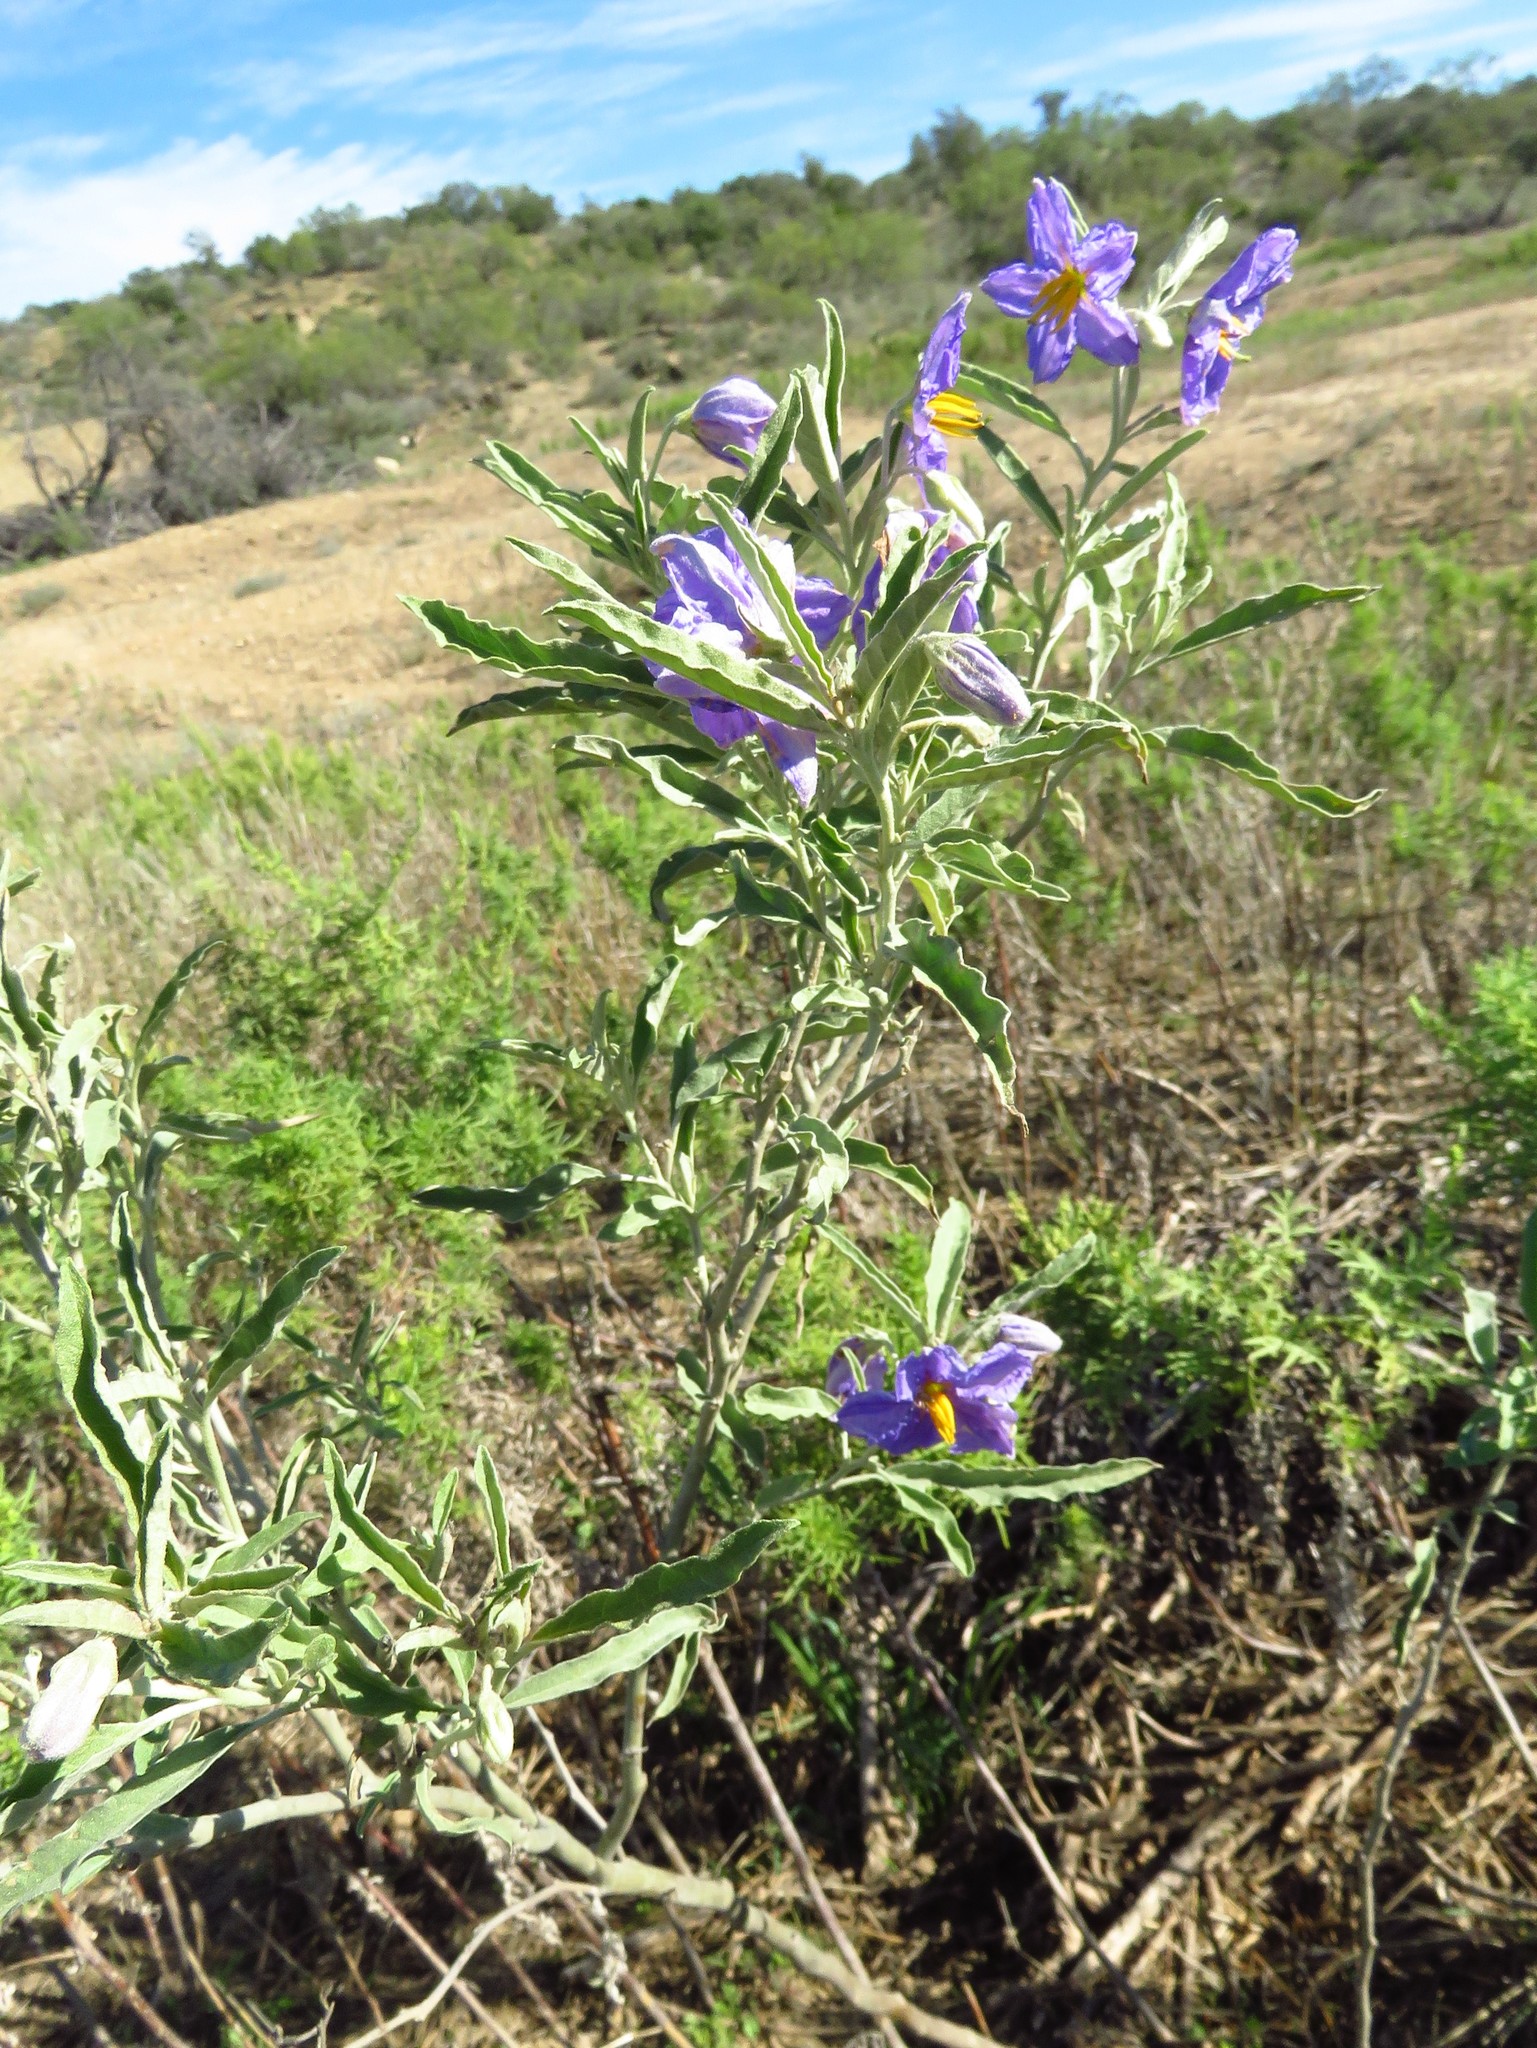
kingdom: Plantae
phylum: Tracheophyta
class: Magnoliopsida
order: Solanales
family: Solanaceae
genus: Solanum
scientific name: Solanum elaeagnifolium
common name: Silverleaf nightshade
